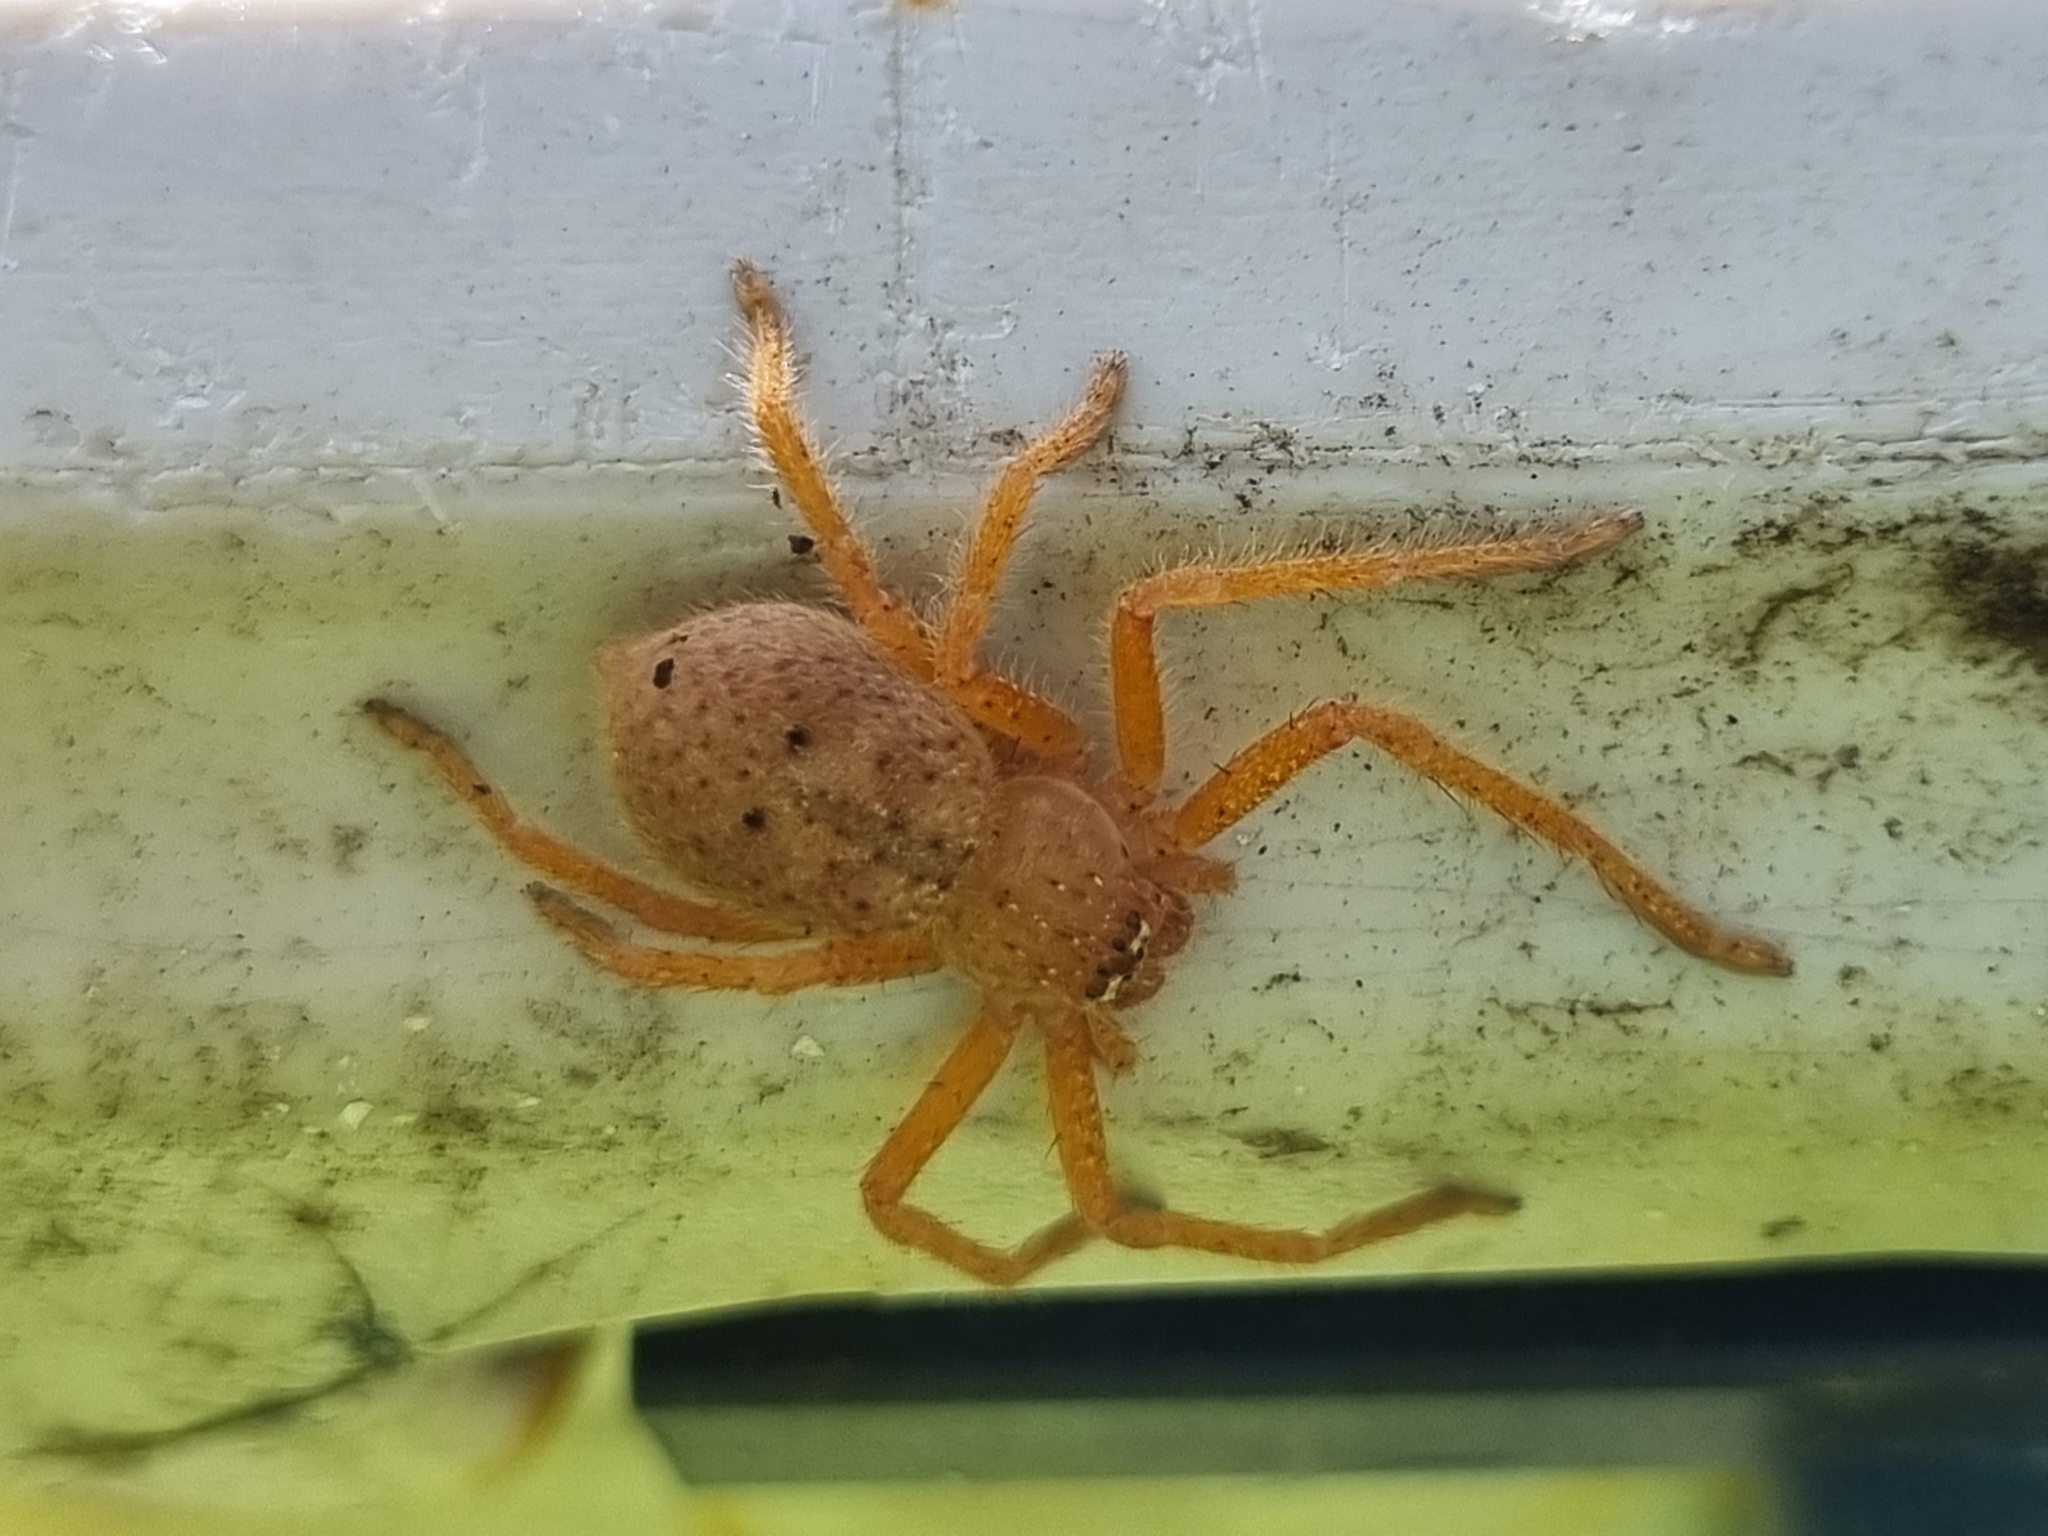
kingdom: Animalia
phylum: Arthropoda
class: Arachnida
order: Araneae
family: Sparassidae
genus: Neosparassus
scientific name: Neosparassus diana
